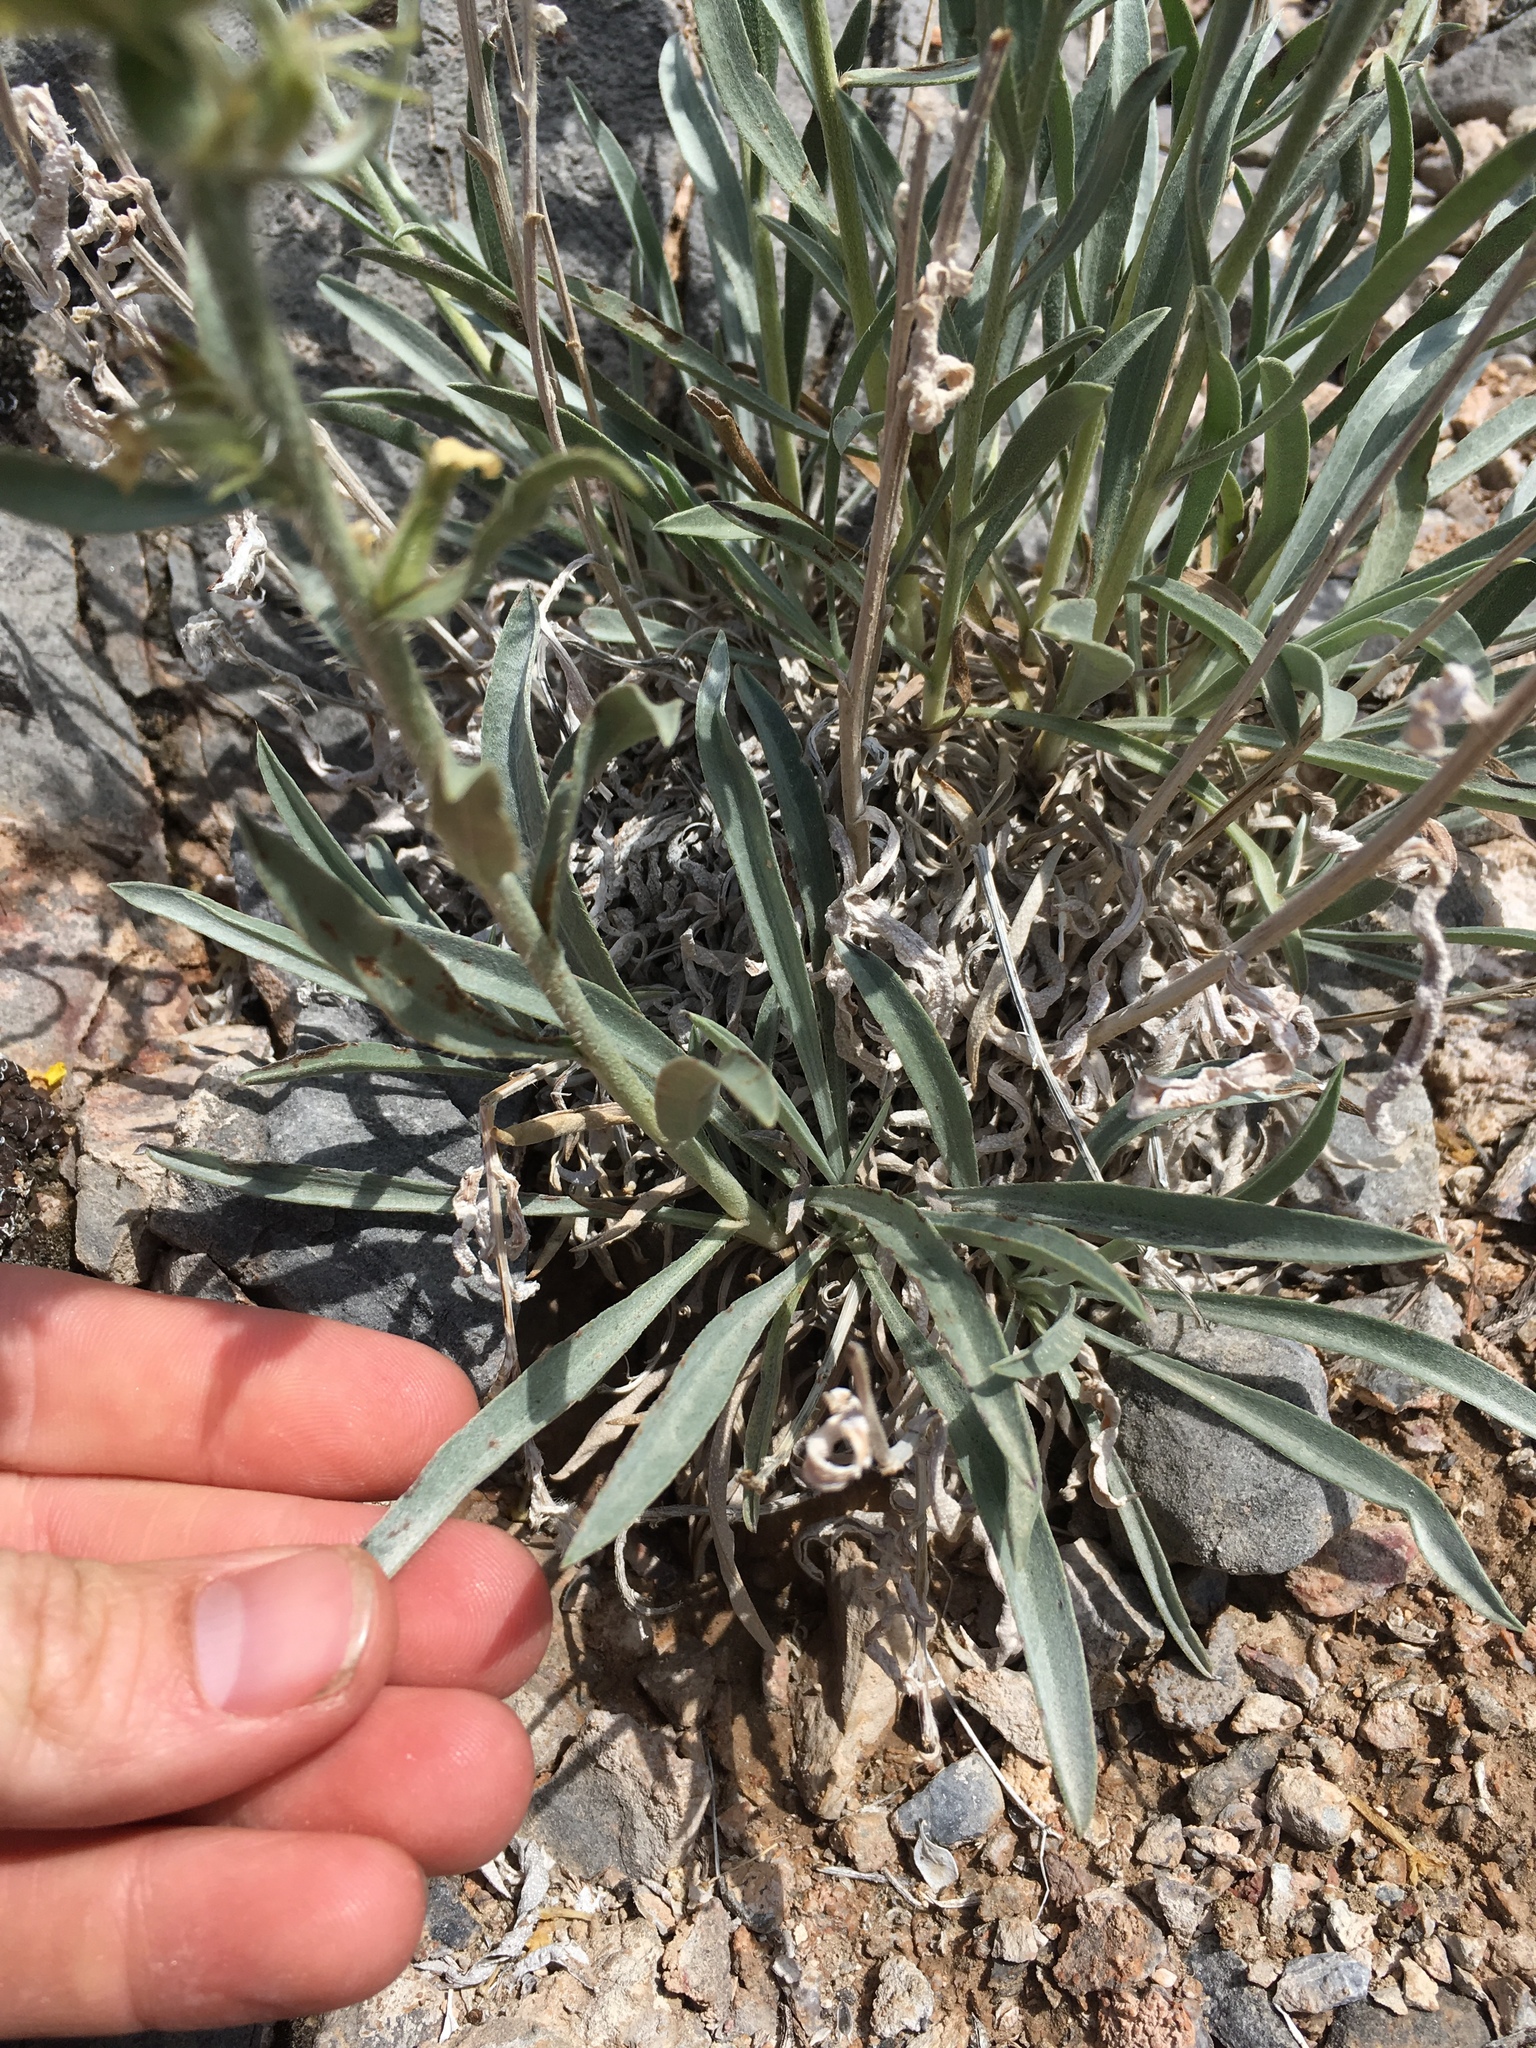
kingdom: Plantae
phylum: Tracheophyta
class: Magnoliopsida
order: Boraginales
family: Boraginaceae
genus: Oreocarya
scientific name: Oreocarya confertiflora
